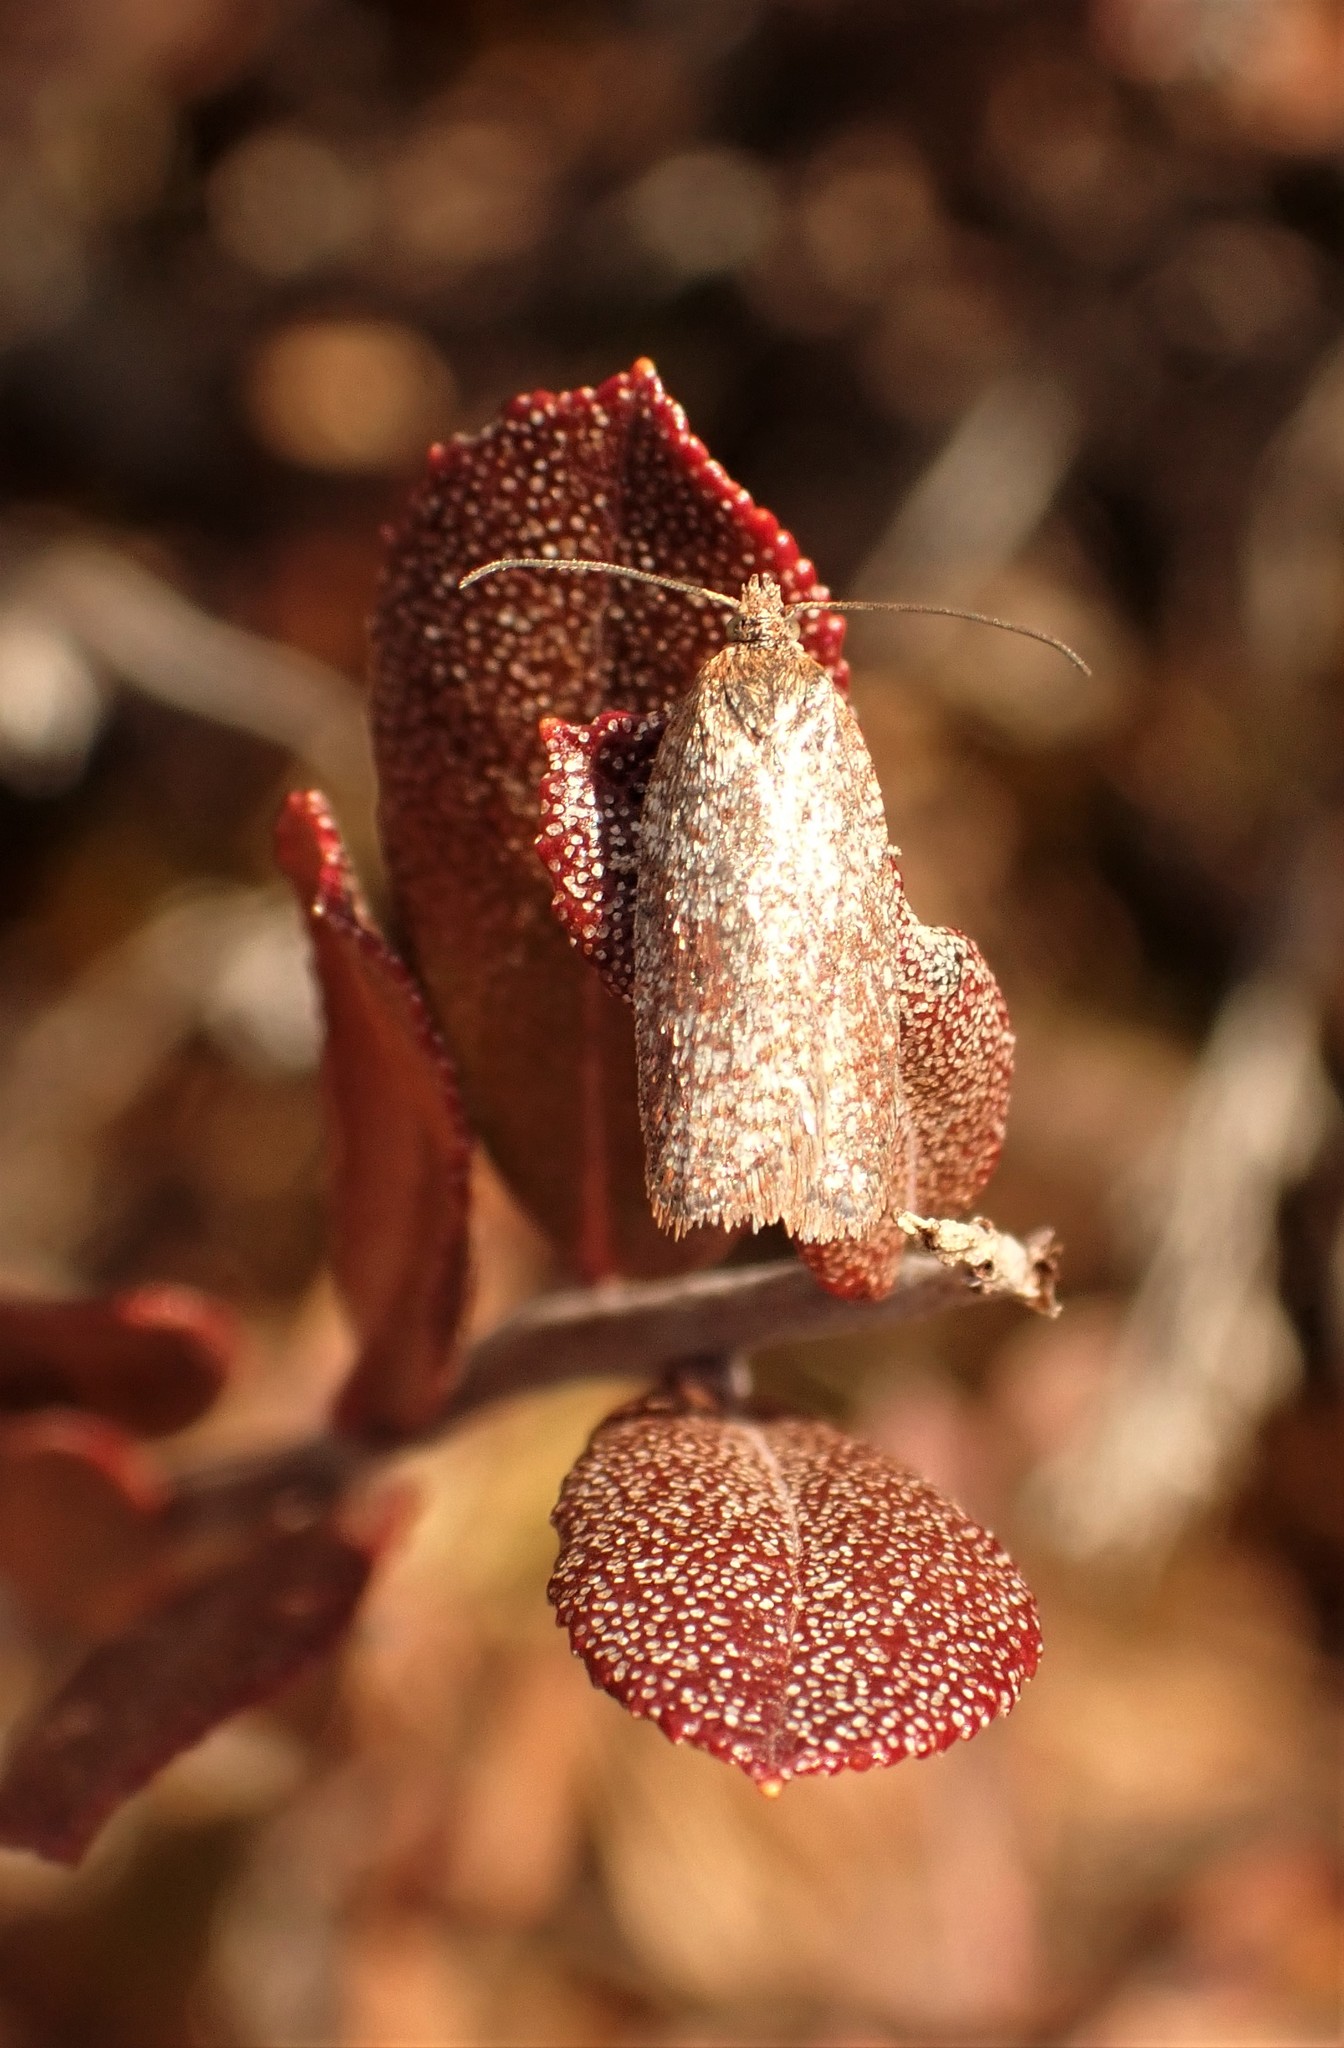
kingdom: Animalia
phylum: Arthropoda
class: Insecta
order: Lepidoptera
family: Tortricidae
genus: Acleris
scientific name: Acleris oxycoccana
